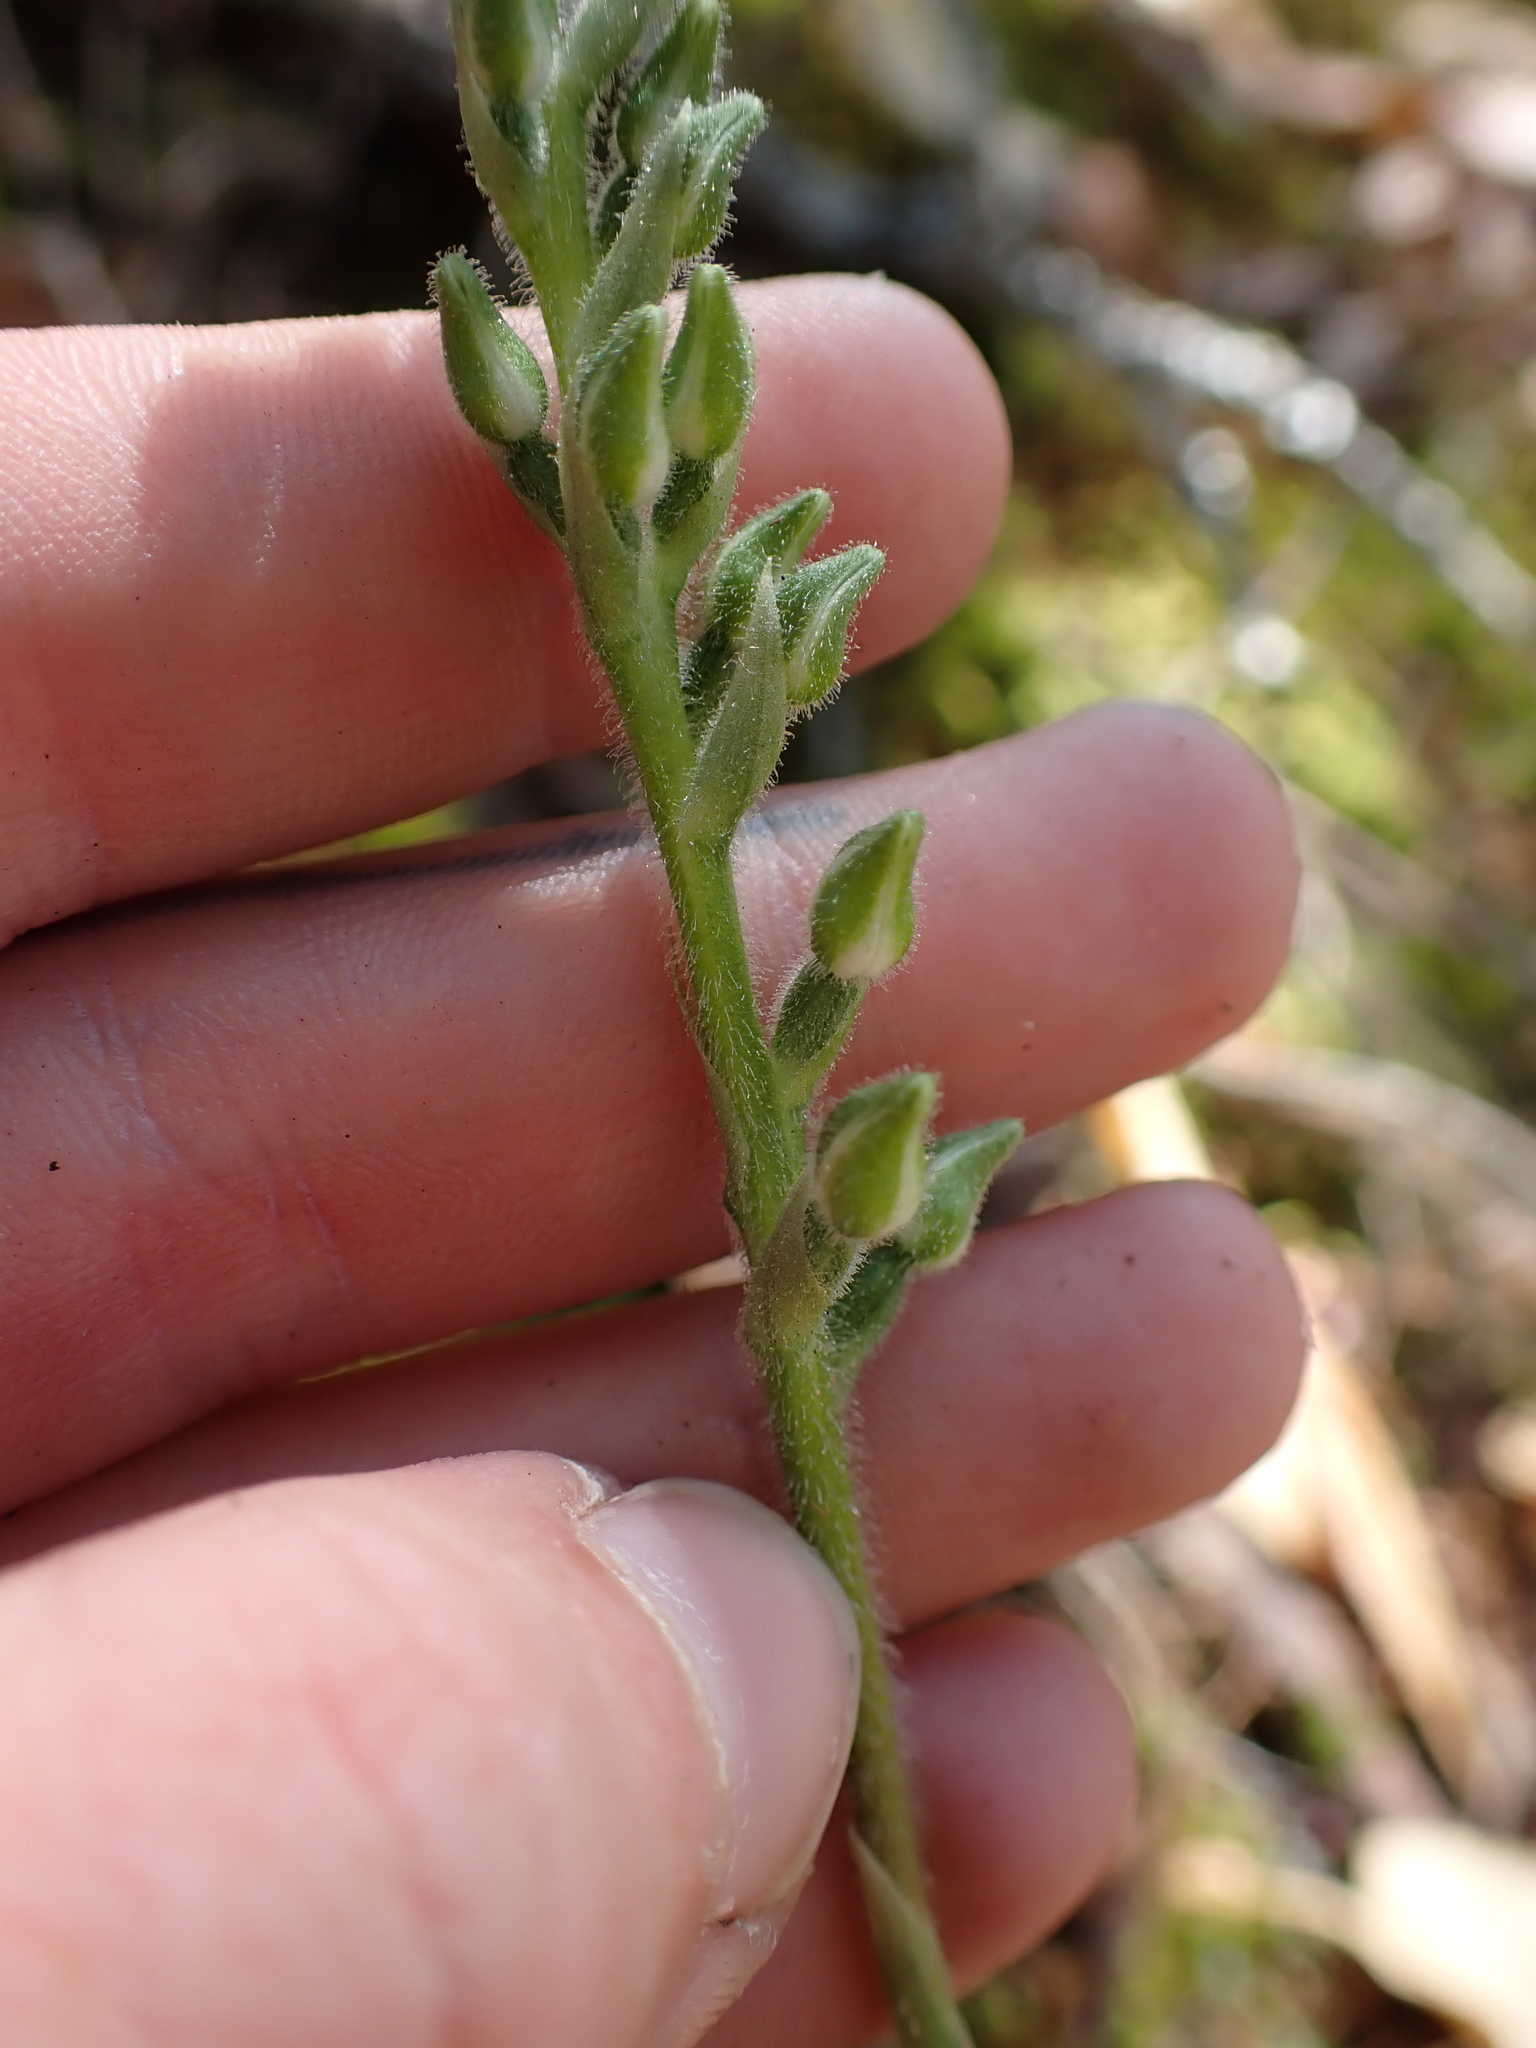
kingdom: Plantae
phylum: Tracheophyta
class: Liliopsida
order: Asparagales
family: Orchidaceae
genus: Goodyera
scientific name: Goodyera oblongifolia
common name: Giant rattlesnake-plantain
